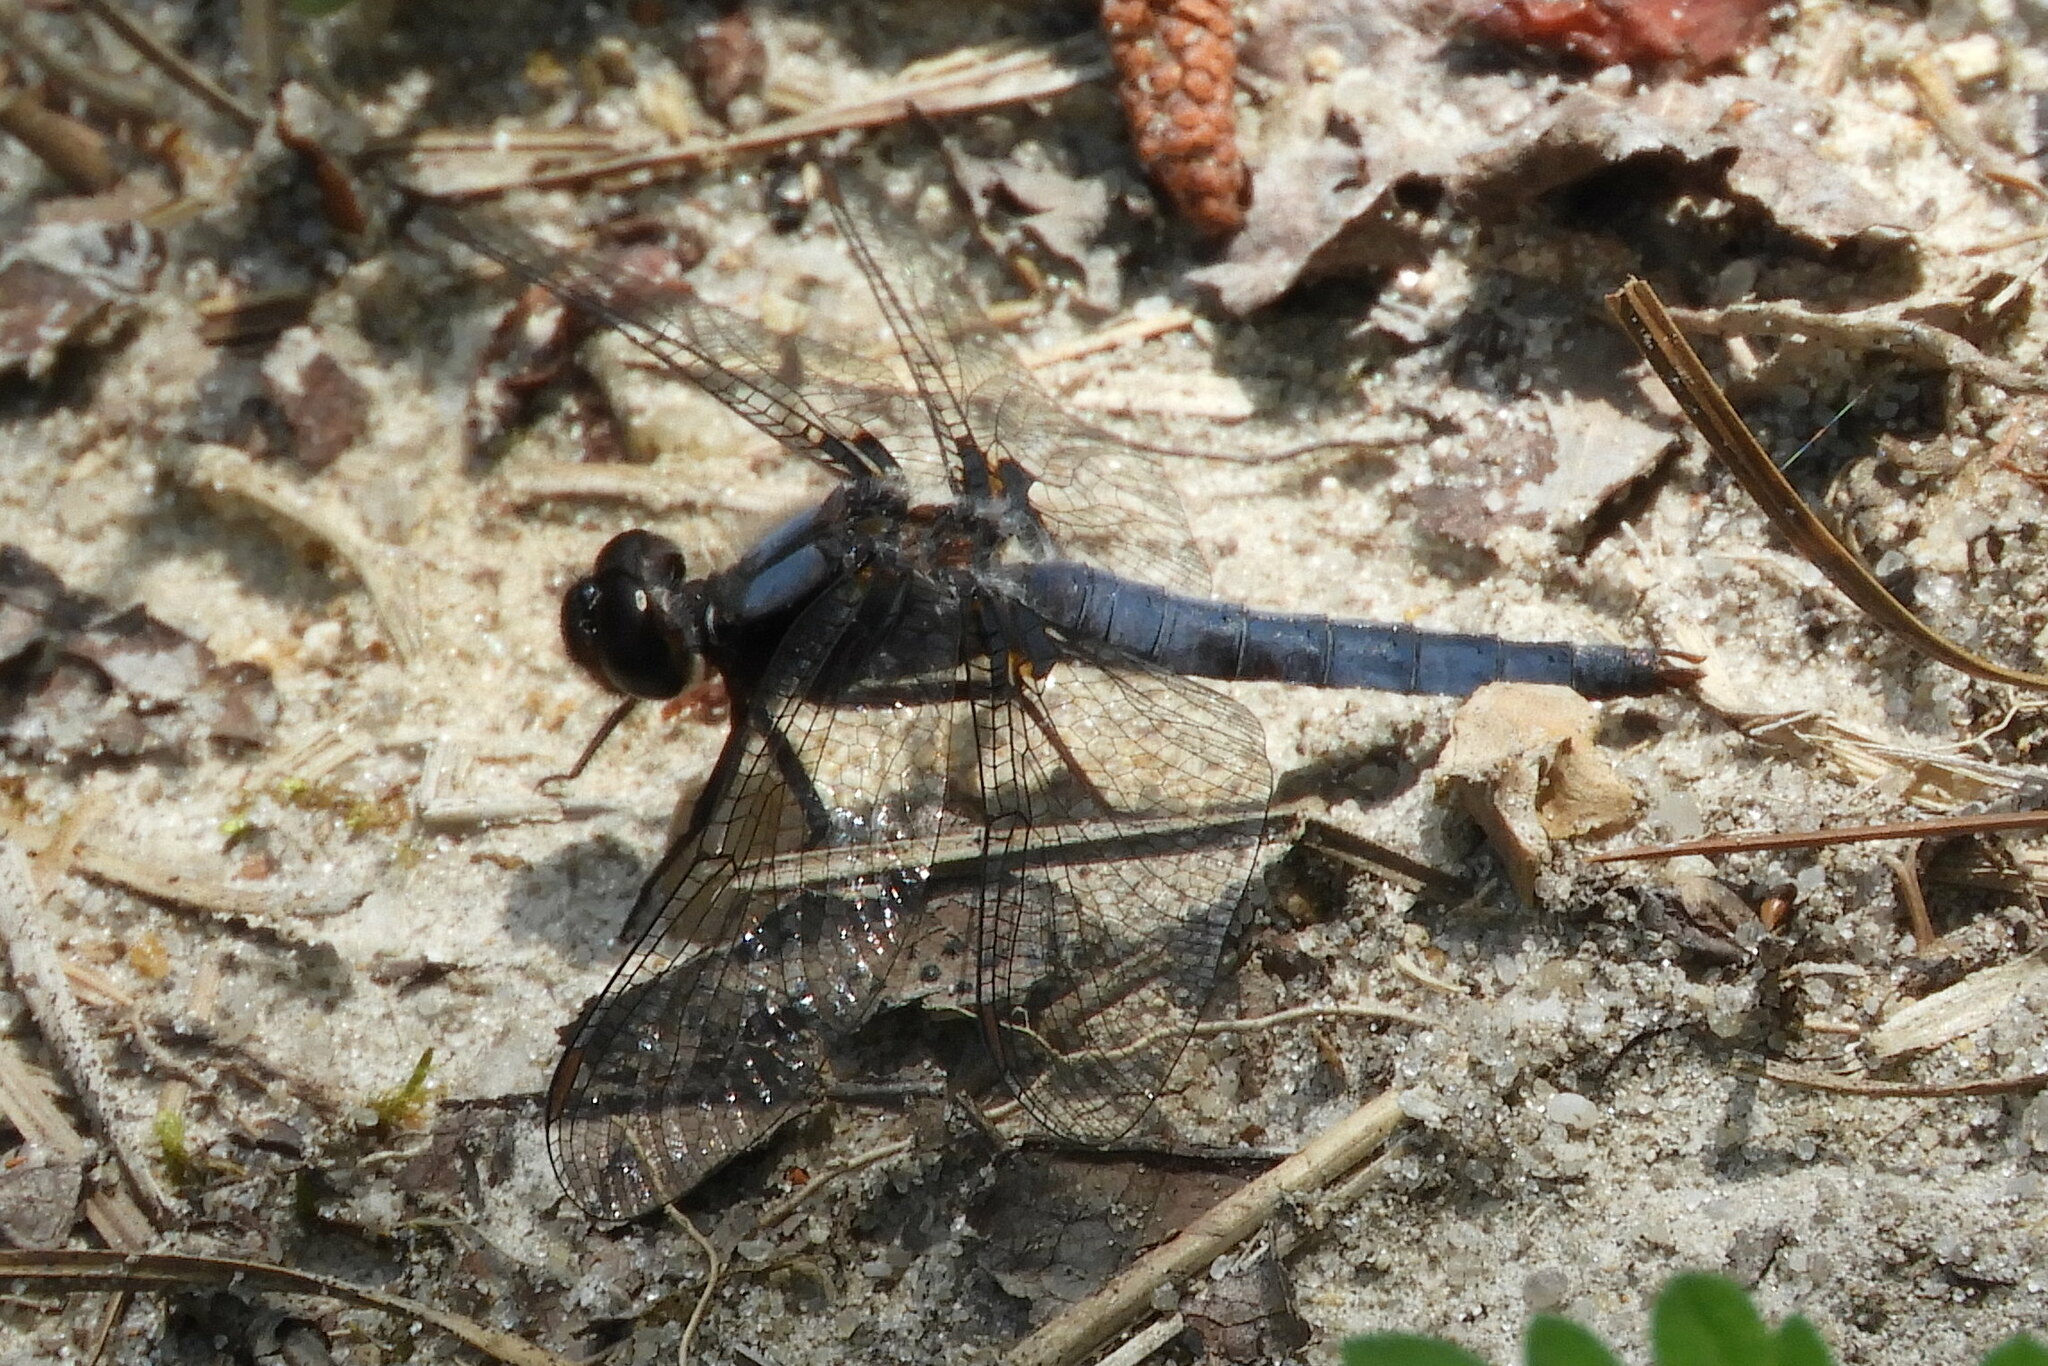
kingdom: Animalia
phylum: Arthropoda
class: Insecta
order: Odonata
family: Libellulidae
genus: Ladona
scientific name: Ladona deplanata
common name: Blue corporal
